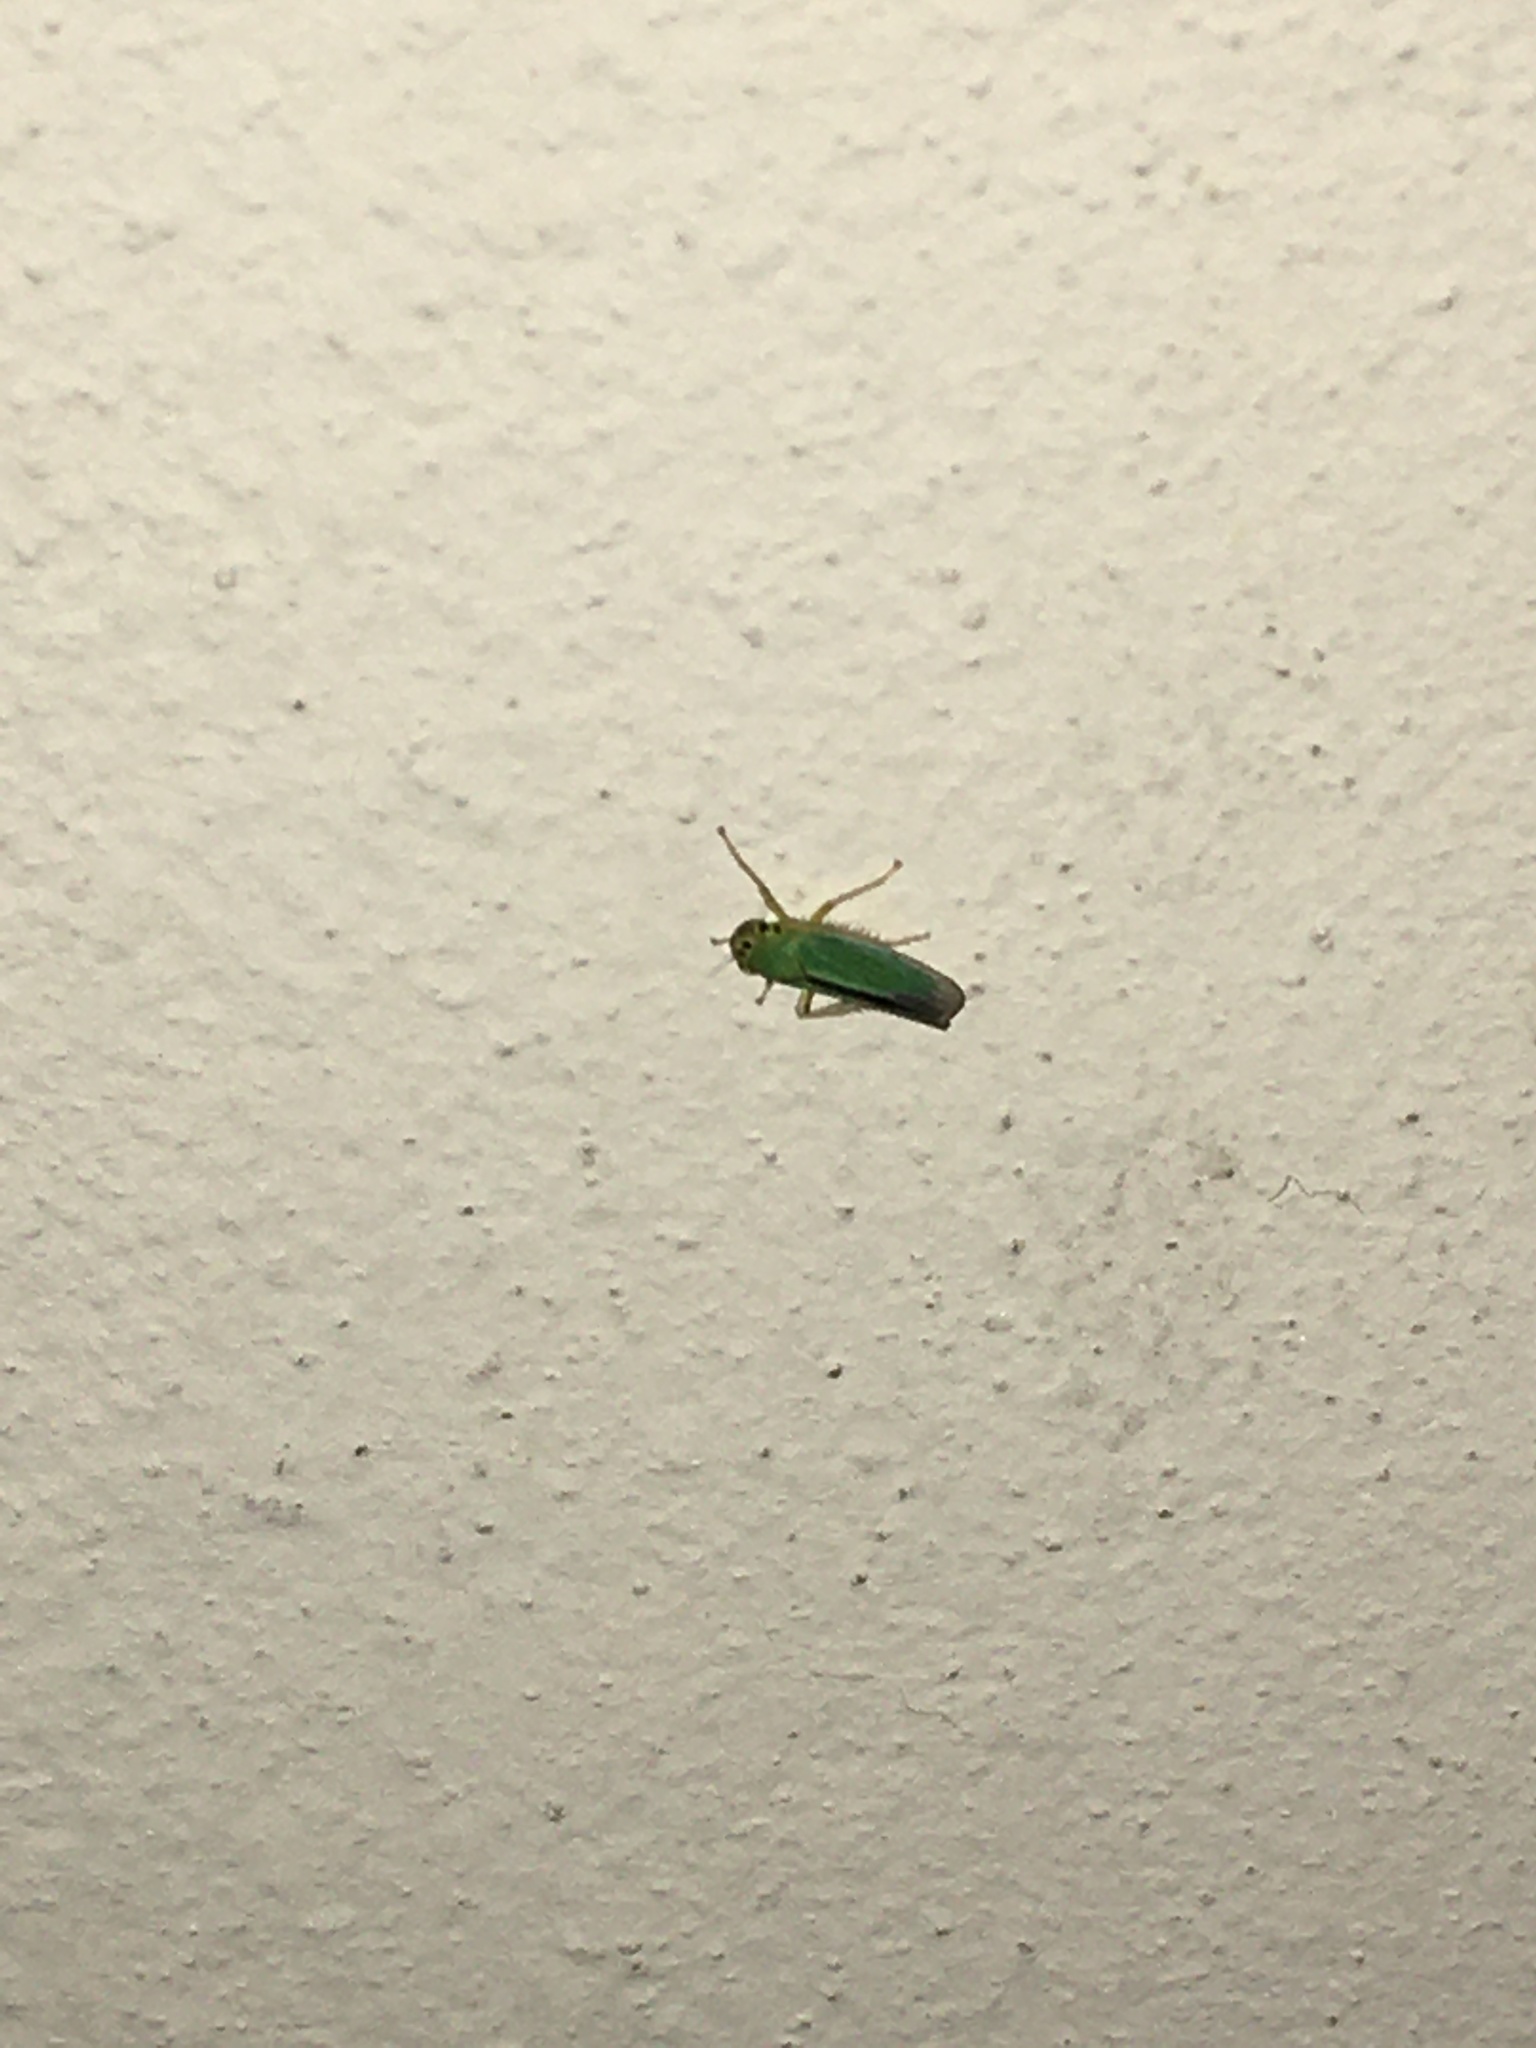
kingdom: Animalia
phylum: Arthropoda
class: Insecta
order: Hemiptera
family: Cicadellidae
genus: Cicadella
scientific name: Cicadella viridis
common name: Leafhopper
